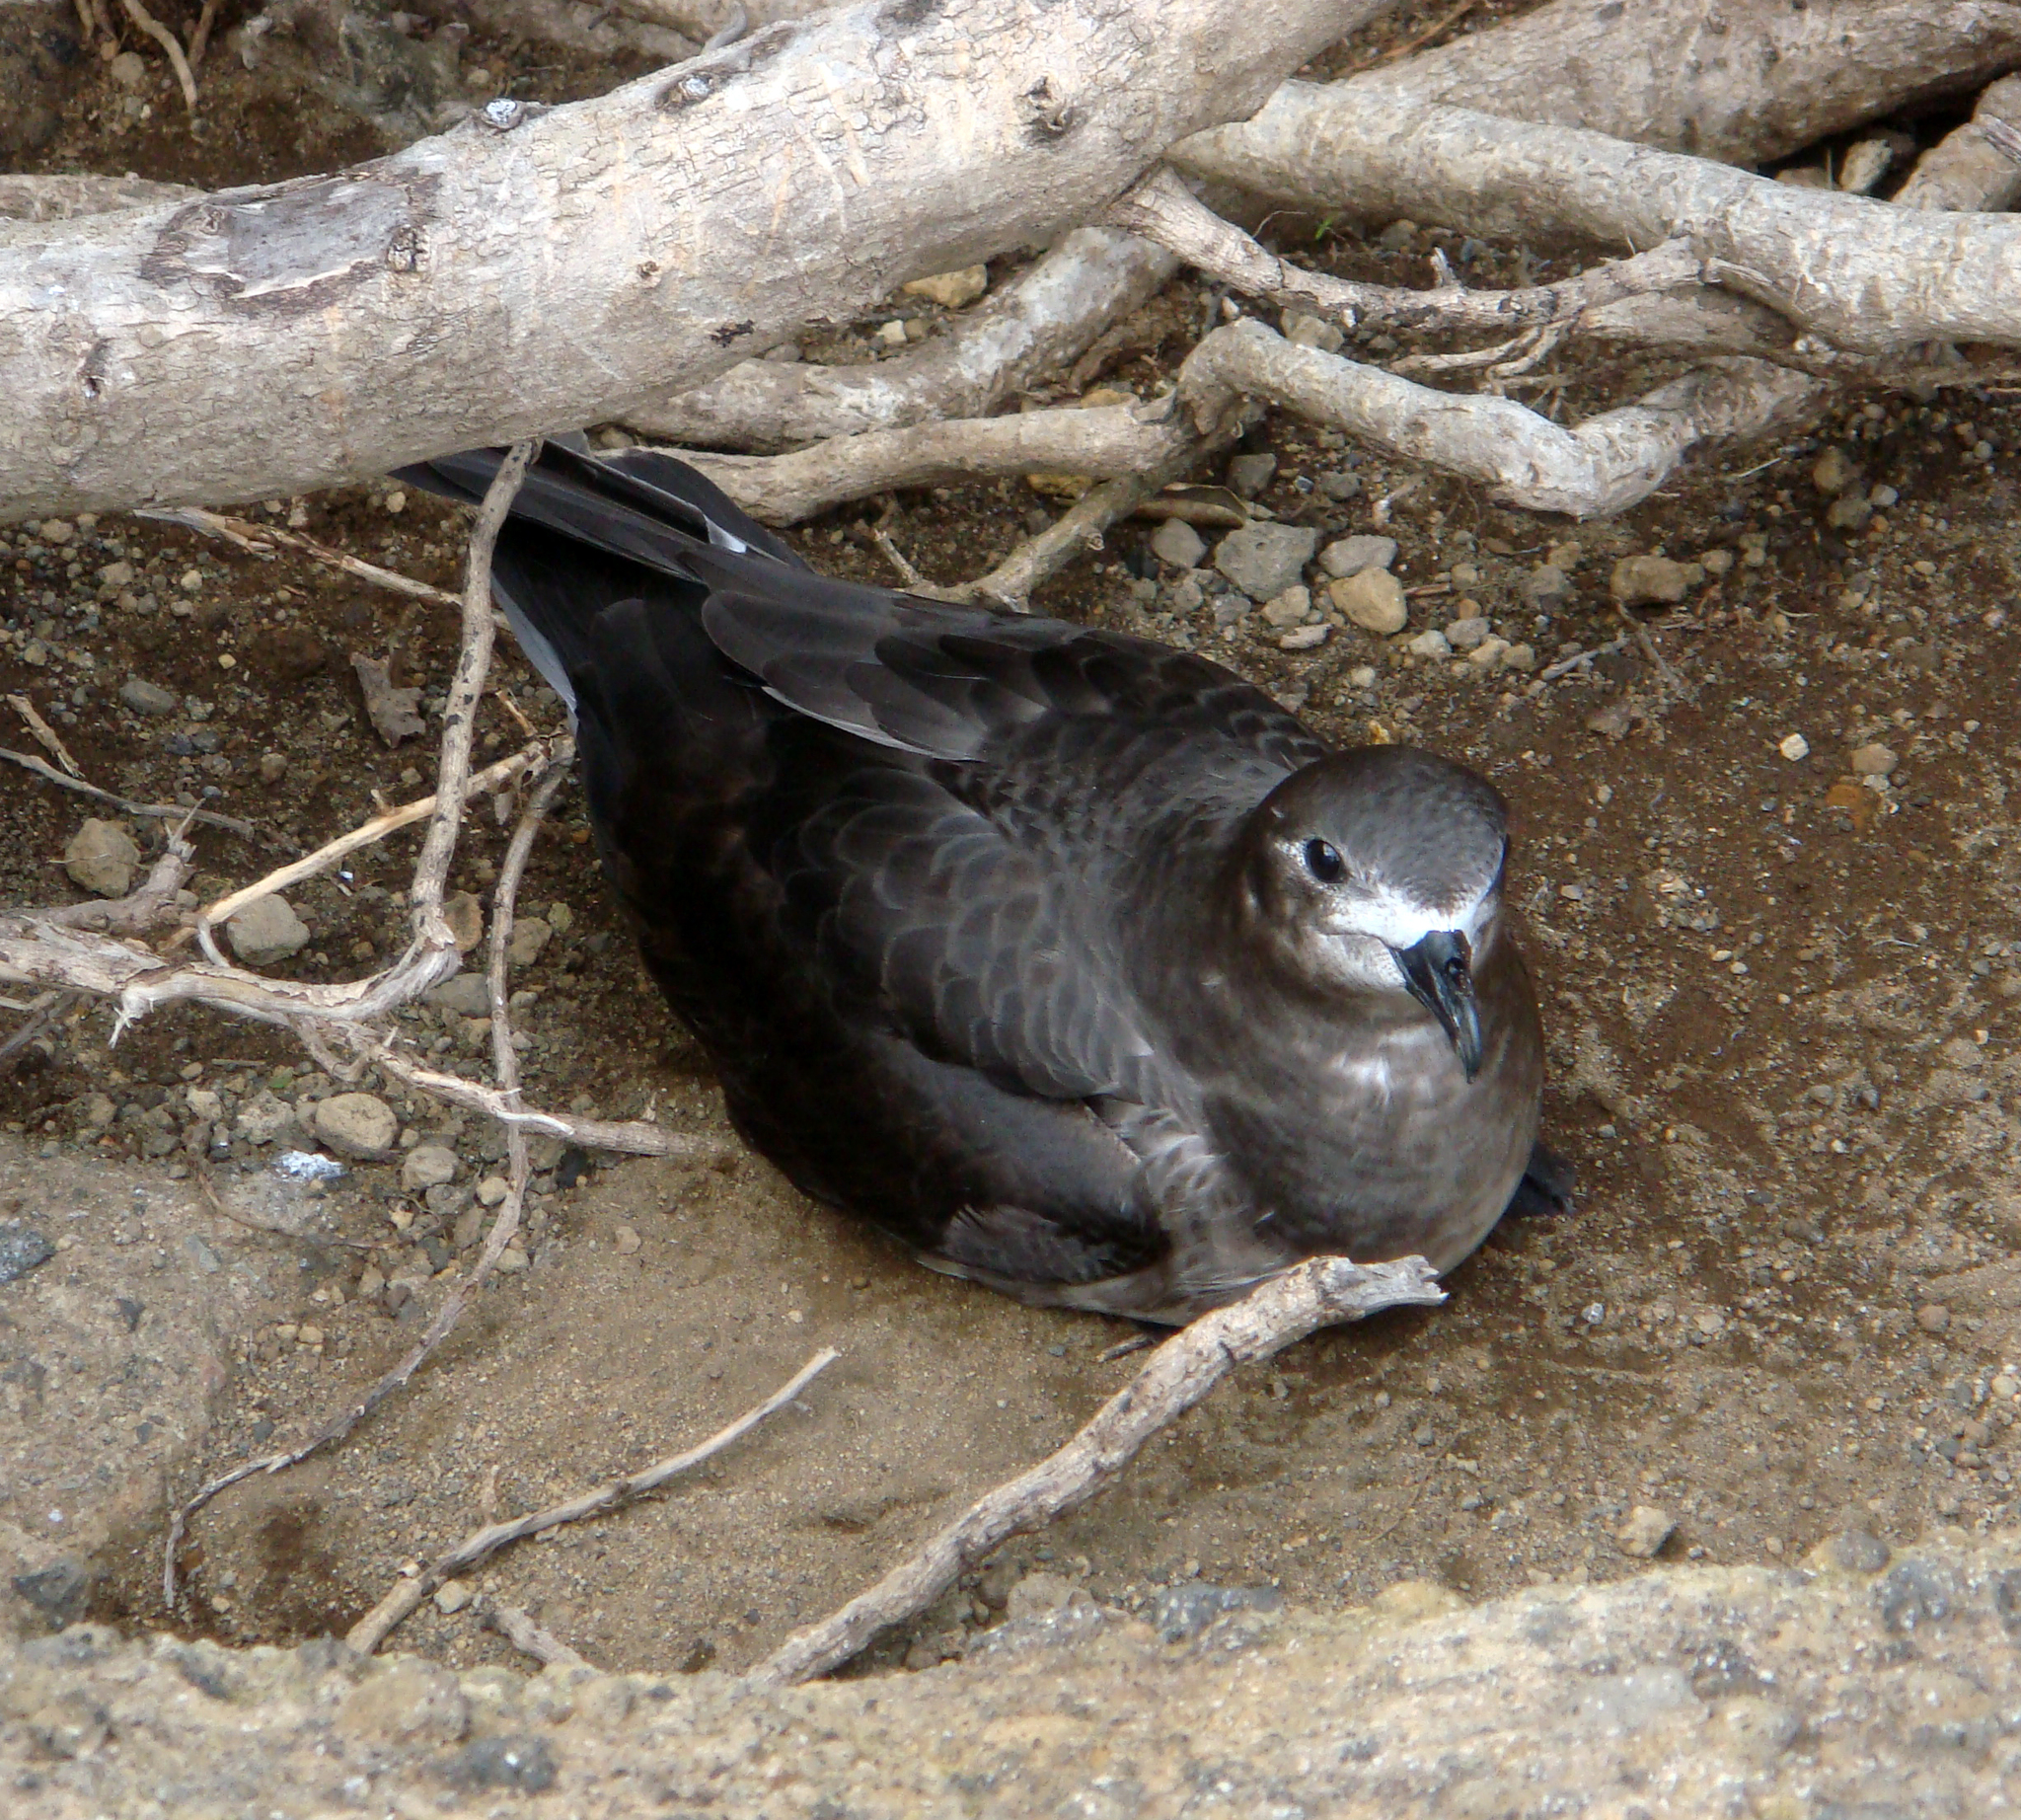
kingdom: Animalia
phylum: Chordata
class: Aves
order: Procellariiformes
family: Procellariidae
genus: Pterodroma
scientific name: Pterodroma neglecta
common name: Kermadec petrel
